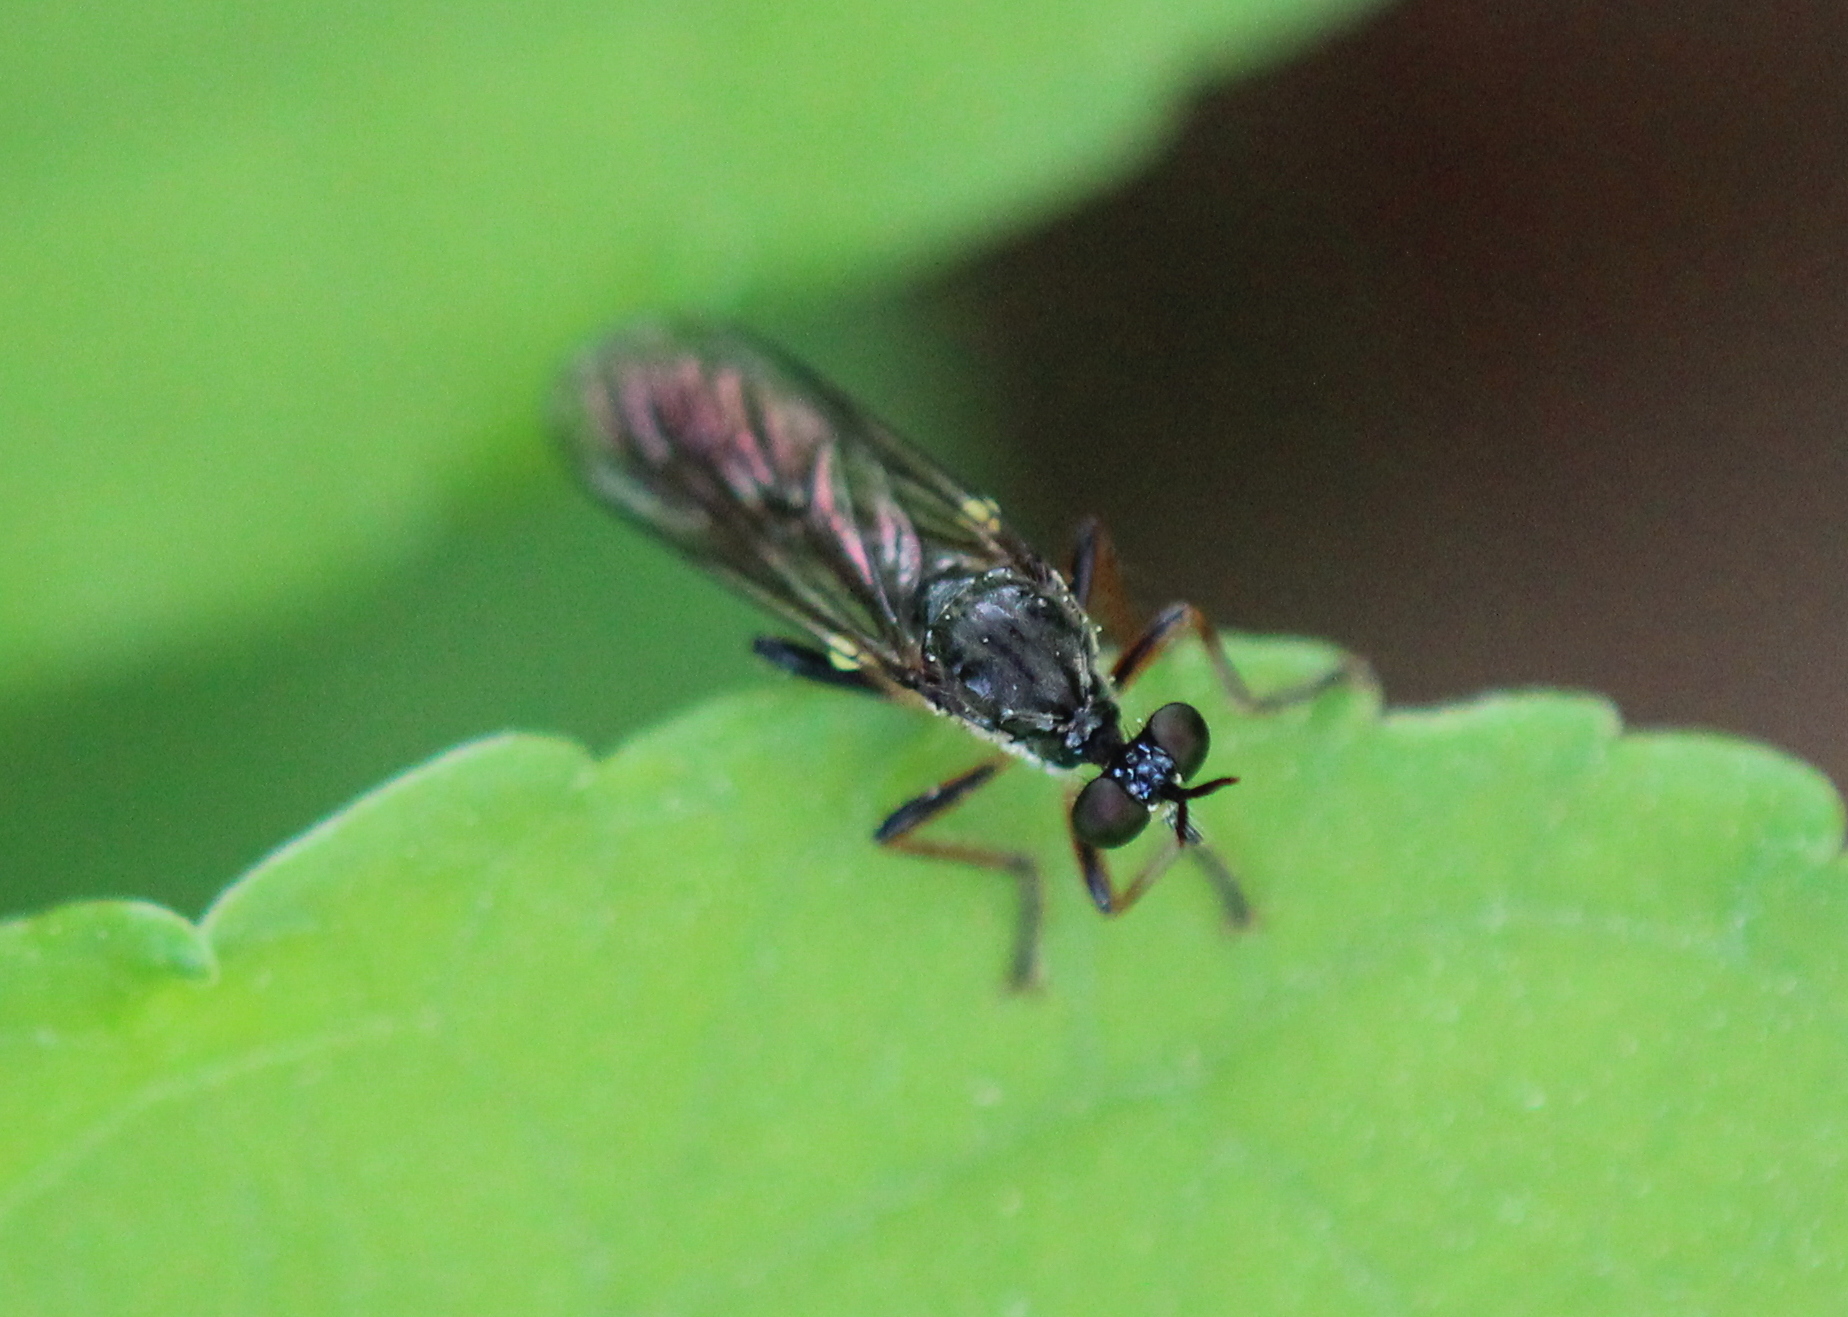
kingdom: Animalia
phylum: Arthropoda
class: Insecta
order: Diptera
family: Asilidae
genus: Dioctria
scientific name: Dioctria hyalipennis
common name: Stripe-legged robberfly
